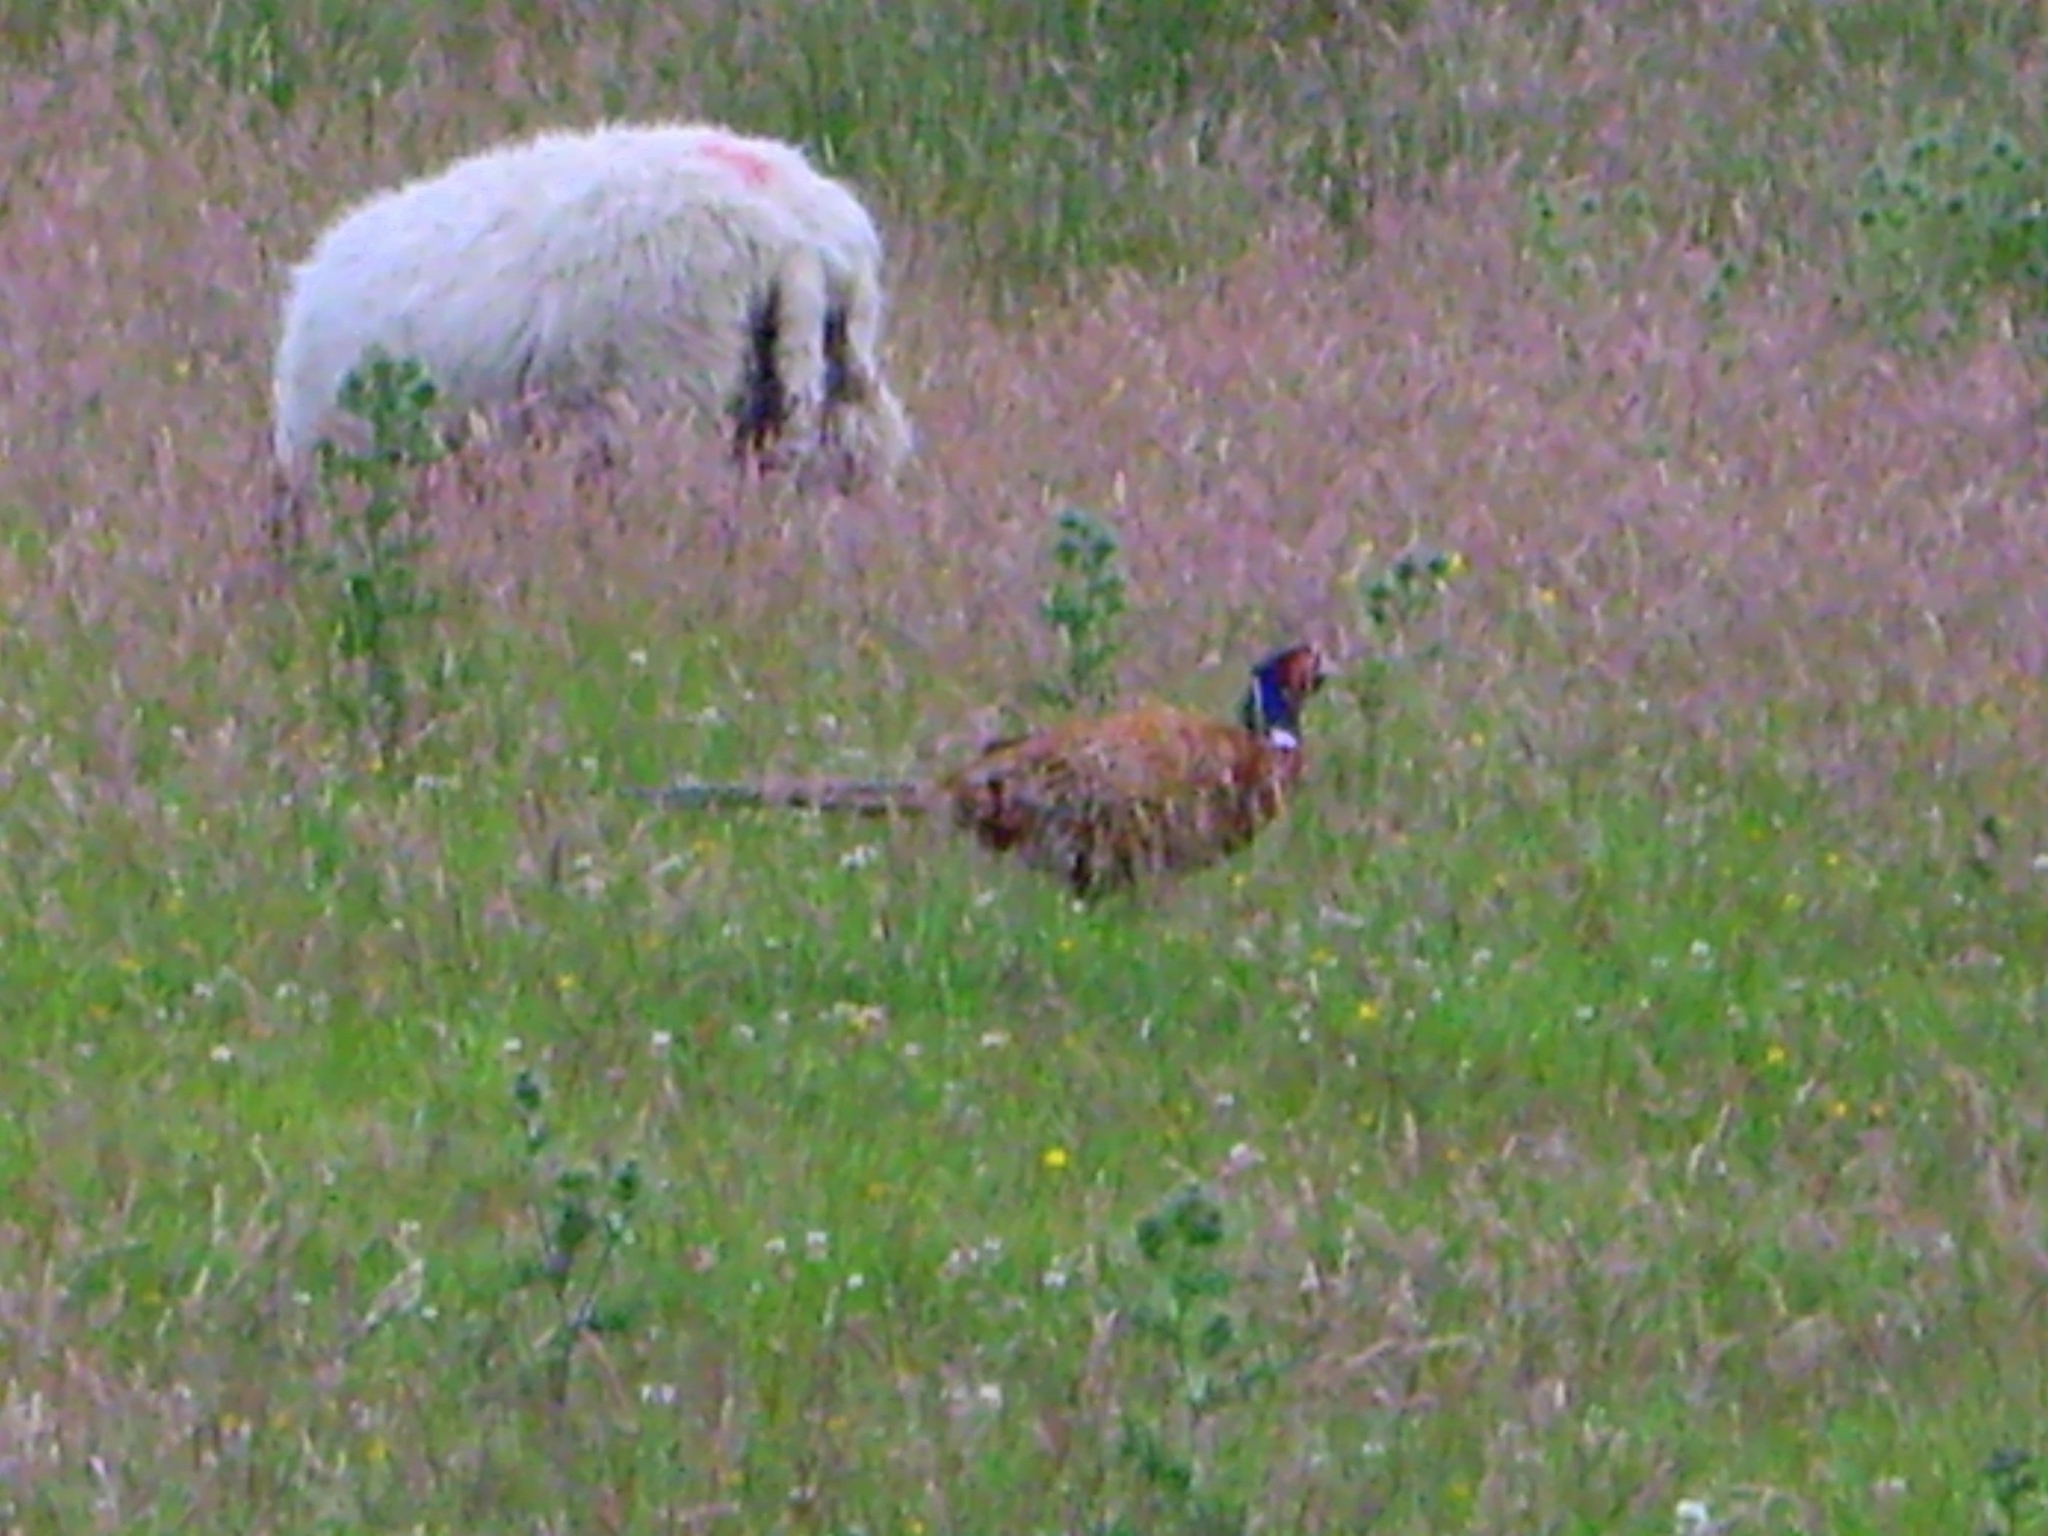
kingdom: Animalia
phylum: Chordata
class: Aves
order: Galliformes
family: Phasianidae
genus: Phasianus
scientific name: Phasianus colchicus
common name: Common pheasant
